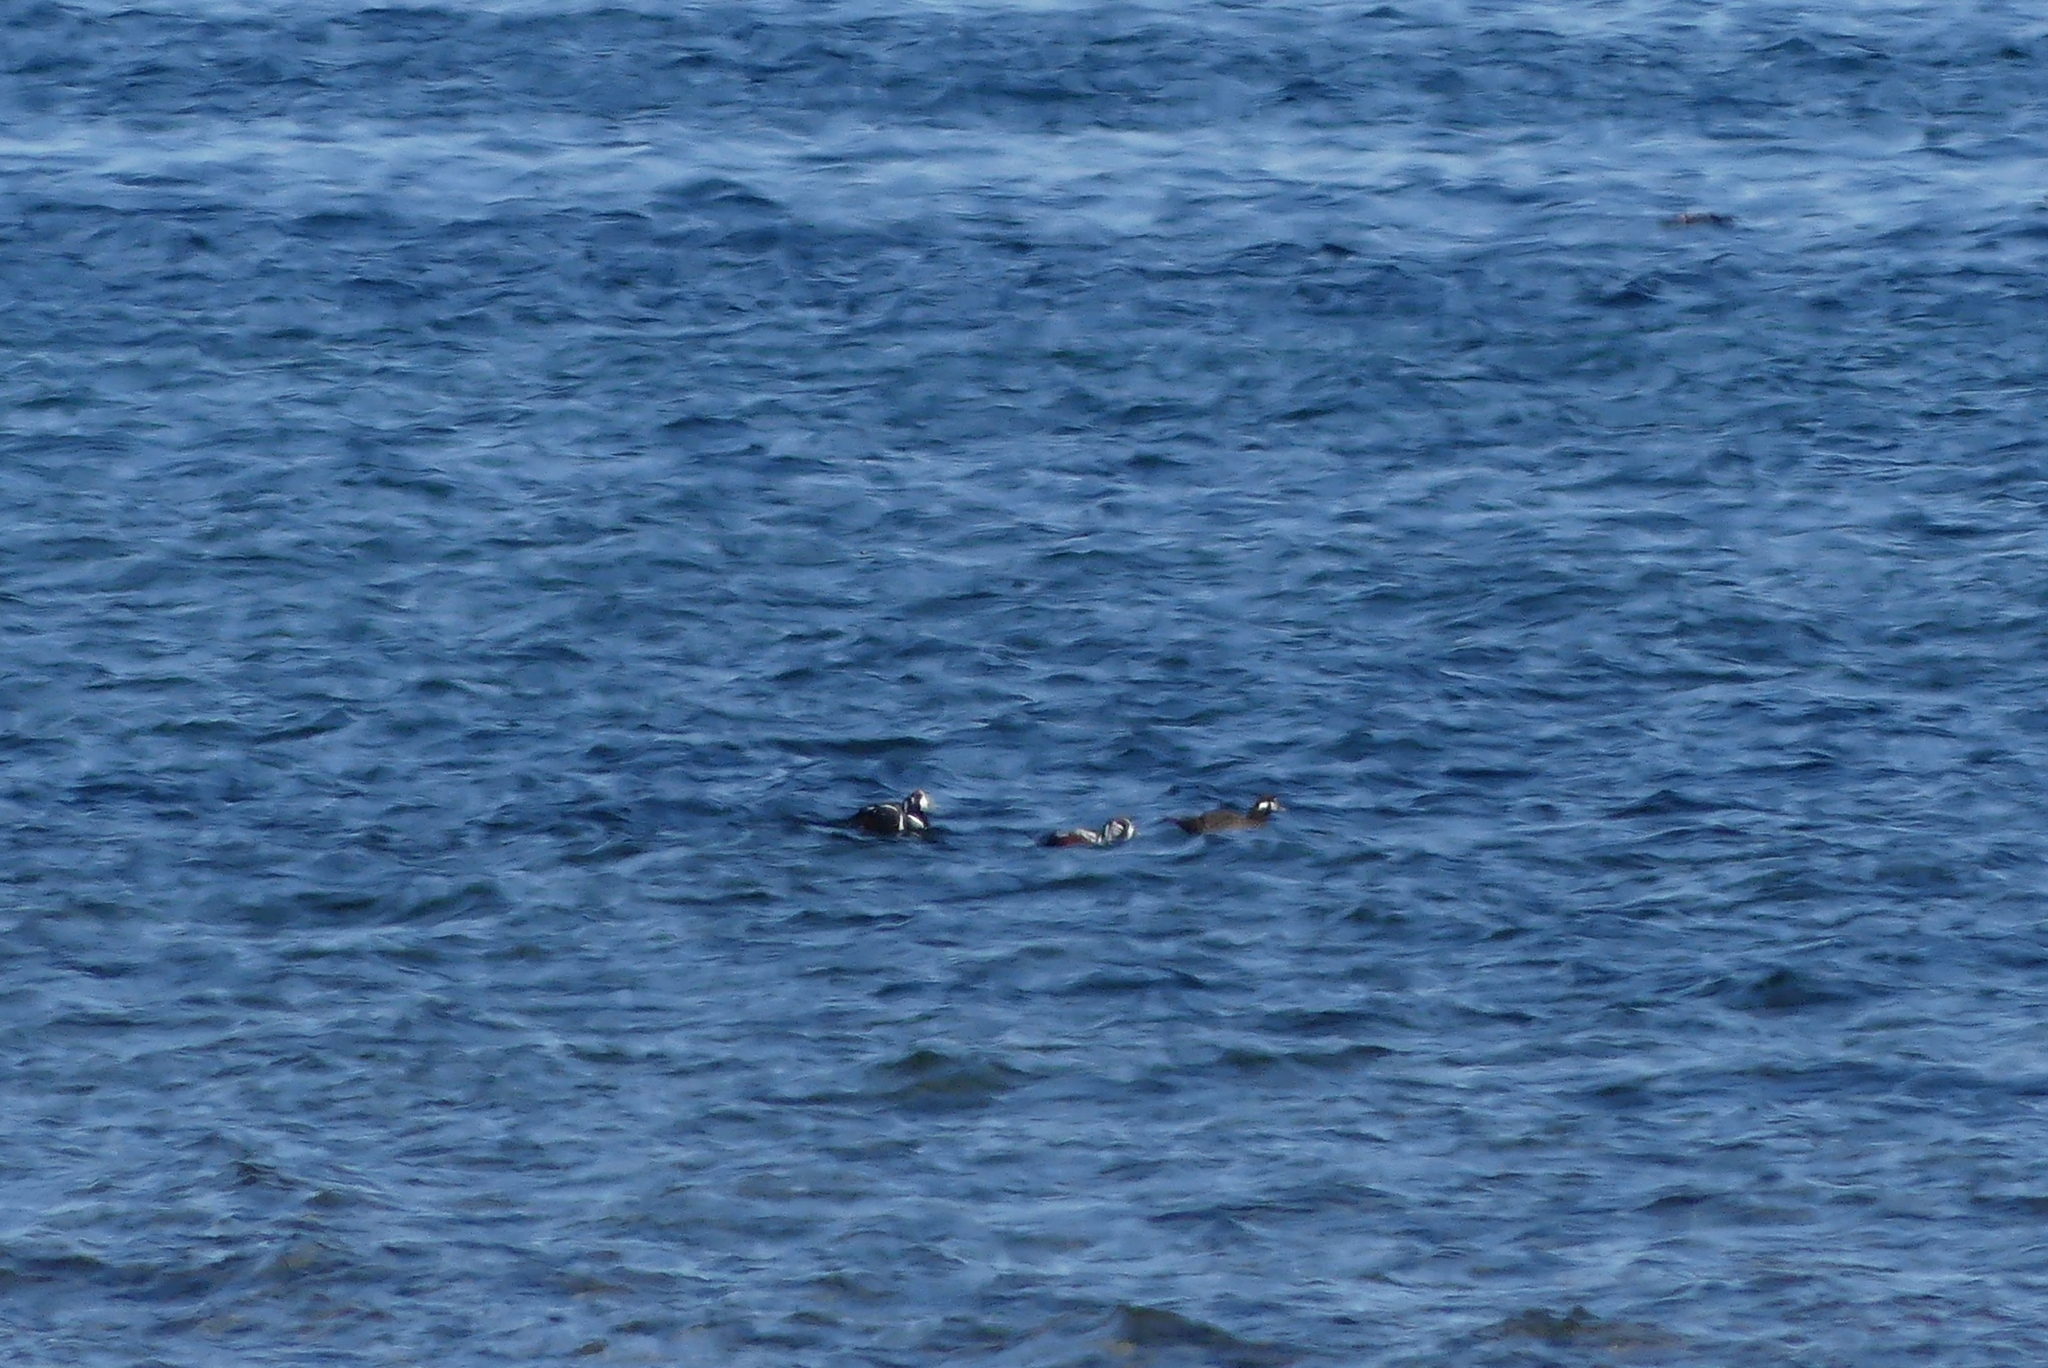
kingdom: Animalia
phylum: Chordata
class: Aves
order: Anseriformes
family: Anatidae
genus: Histrionicus
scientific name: Histrionicus histrionicus
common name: Harlequin duck
